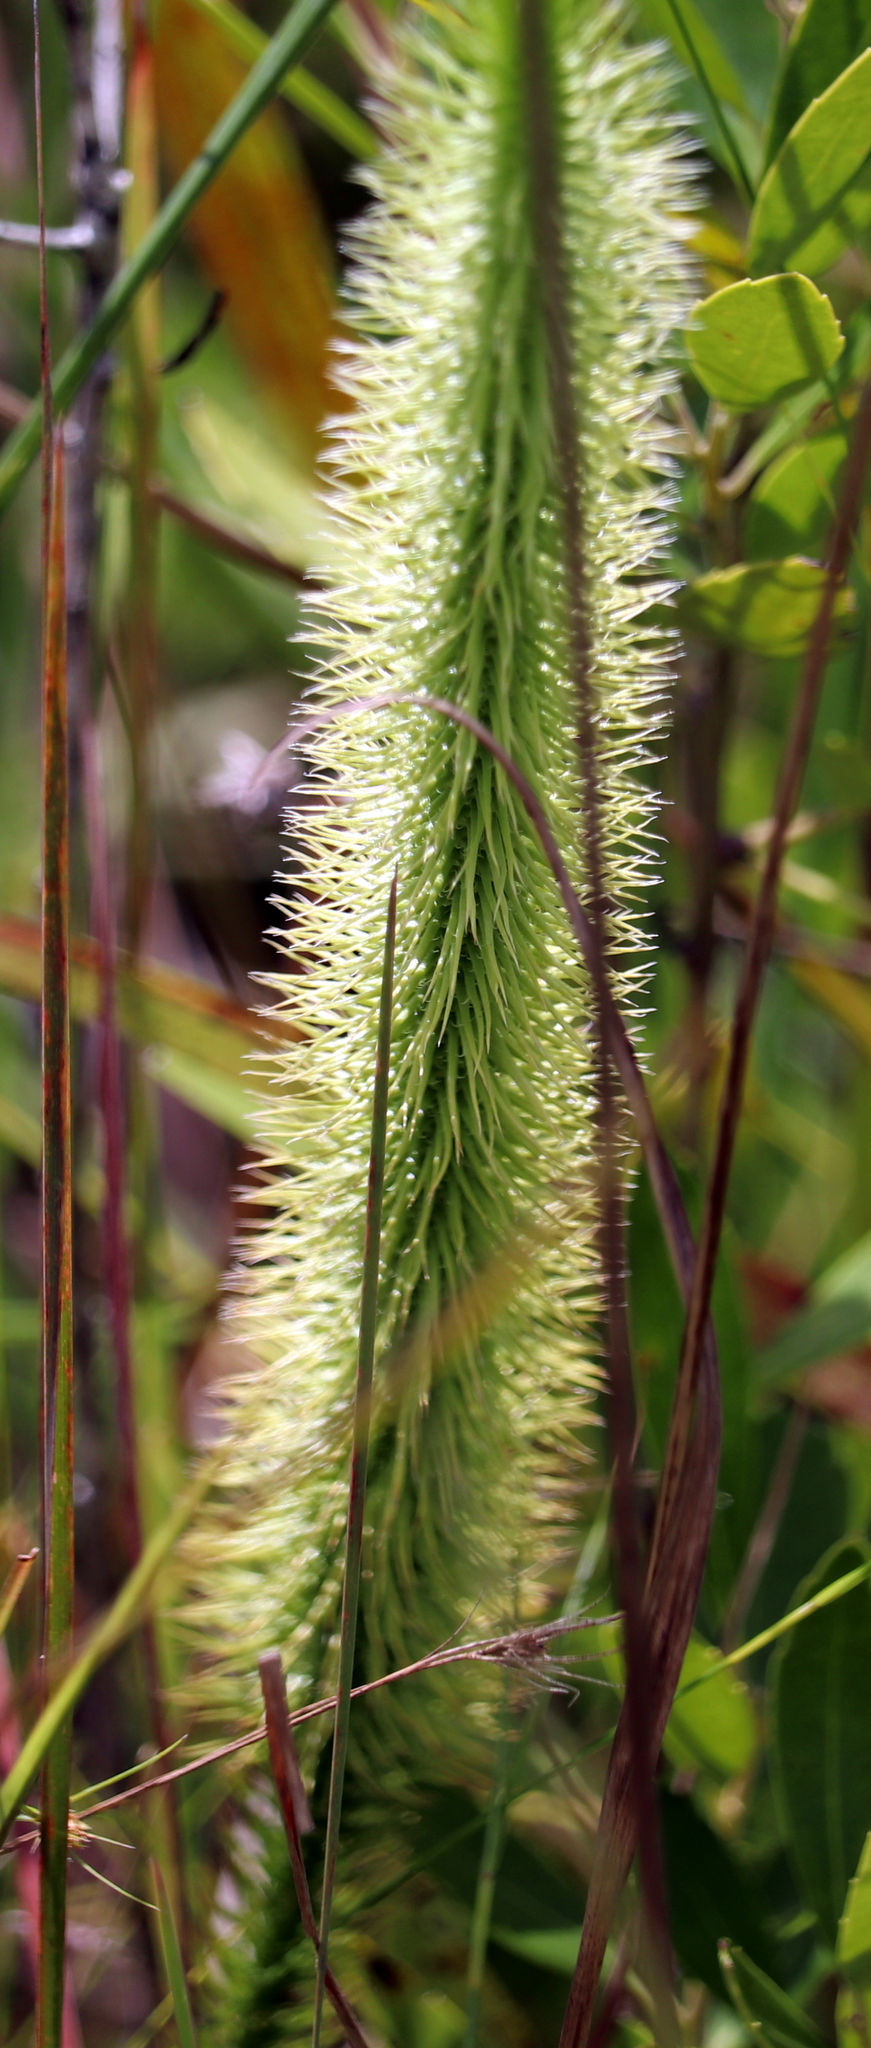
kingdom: Plantae
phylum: Tracheophyta
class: Lycopodiopsida
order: Lycopodiales
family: Lycopodiaceae
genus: Lycopodiella
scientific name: Lycopodiella prostrata
